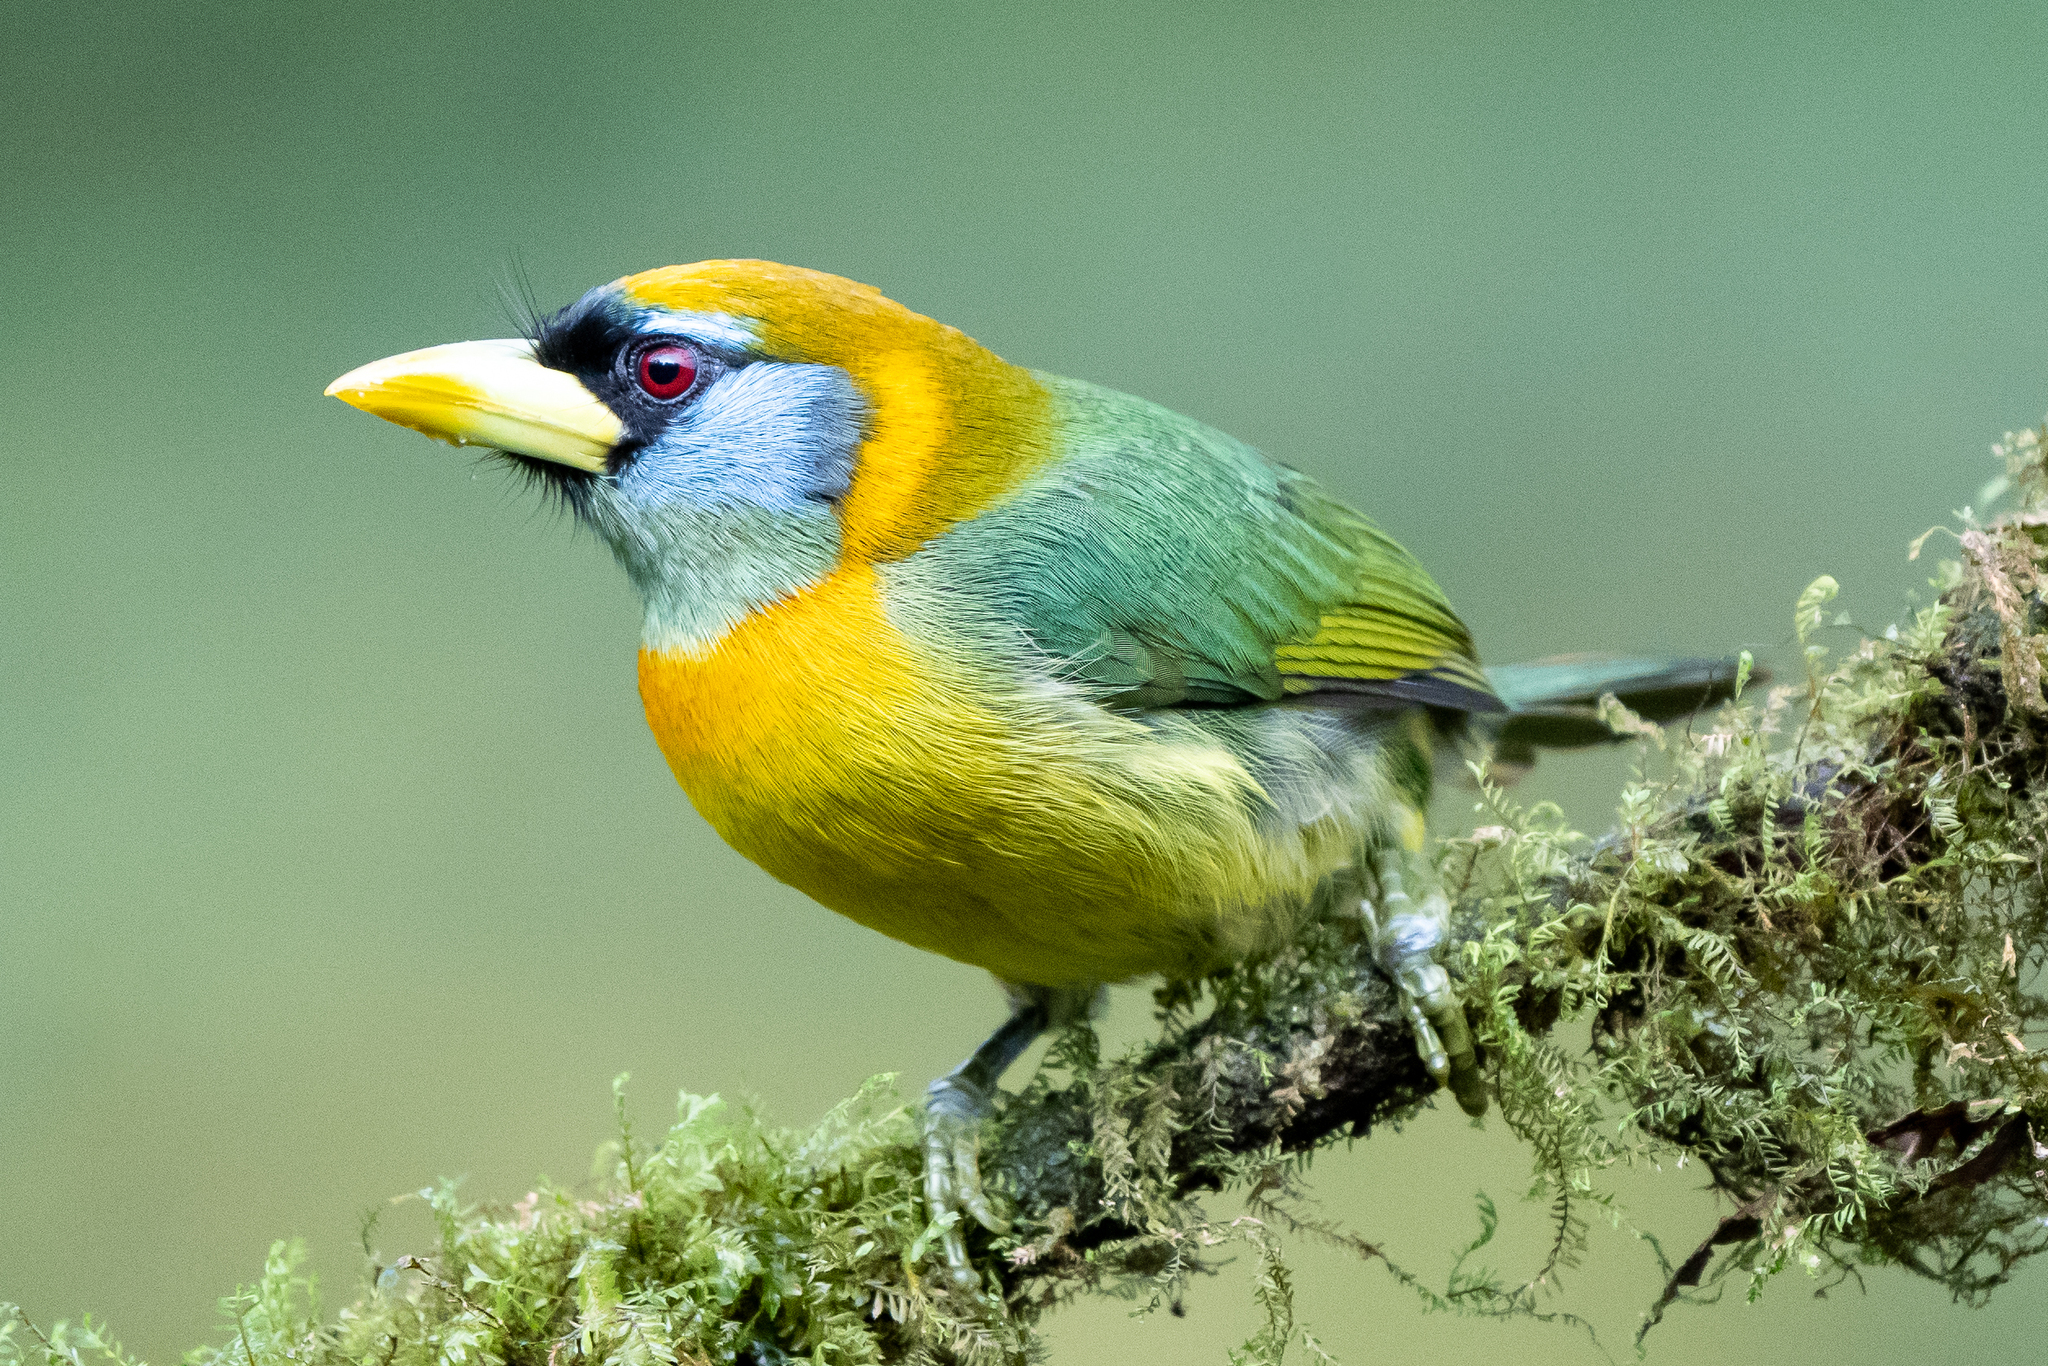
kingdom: Animalia
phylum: Chordata
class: Aves
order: Piciformes
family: Capitonidae
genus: Eubucco
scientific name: Eubucco bourcierii
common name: Red-headed barbet
